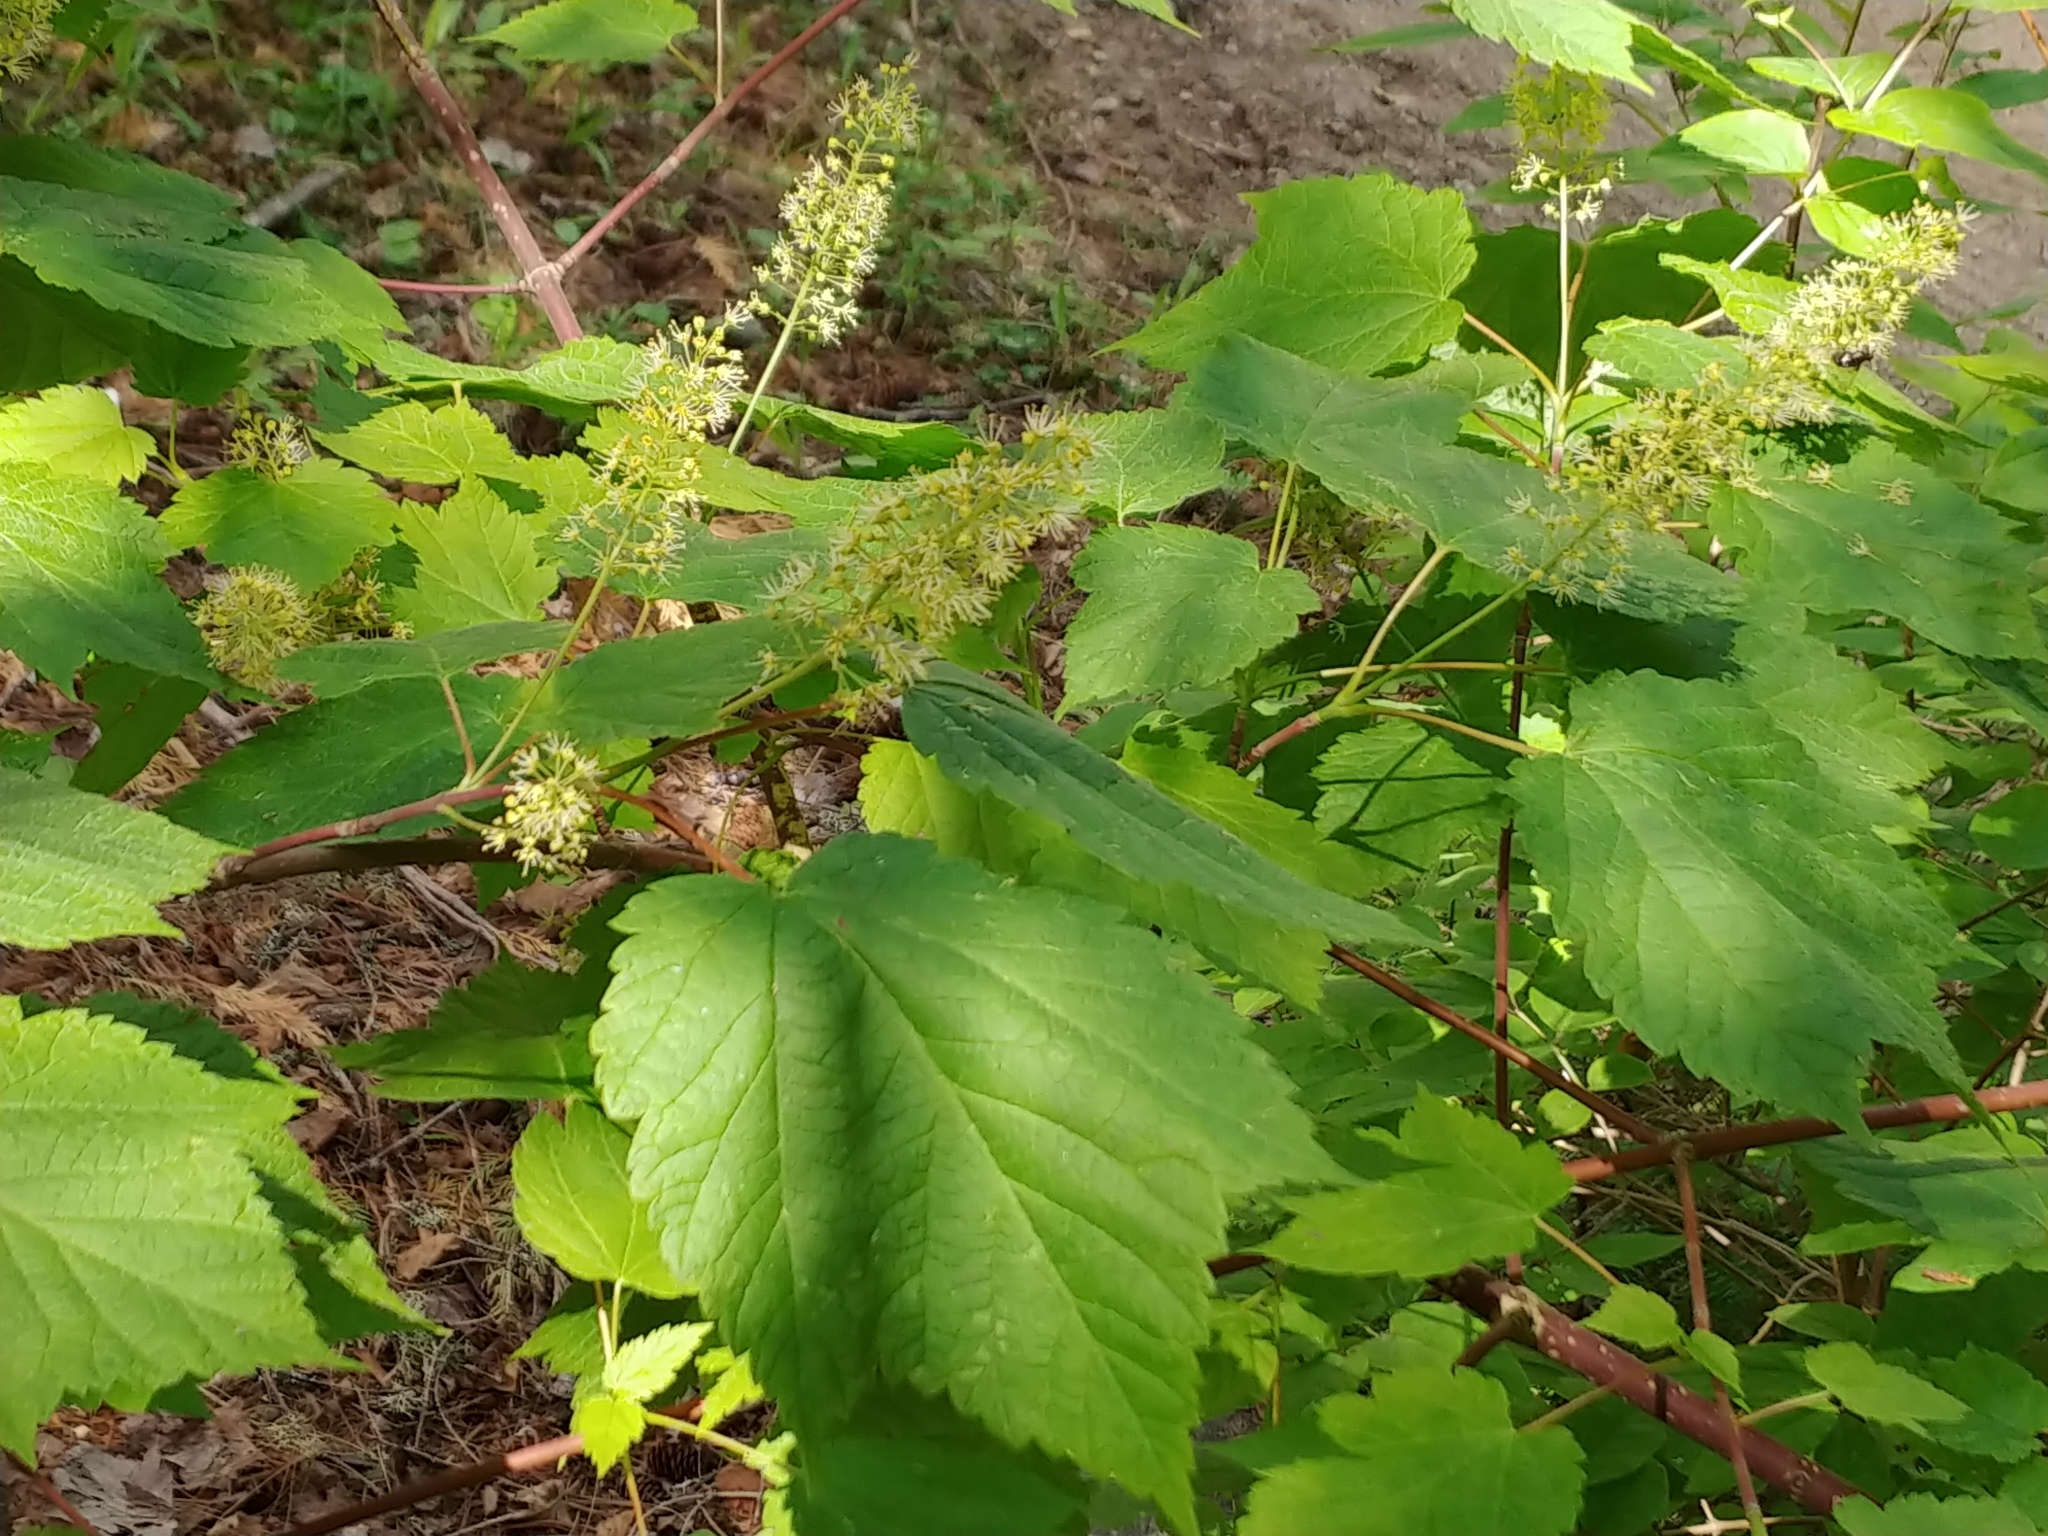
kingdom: Plantae
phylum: Tracheophyta
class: Magnoliopsida
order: Sapindales
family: Sapindaceae
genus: Acer
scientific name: Acer spicatum
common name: Mountain maple
